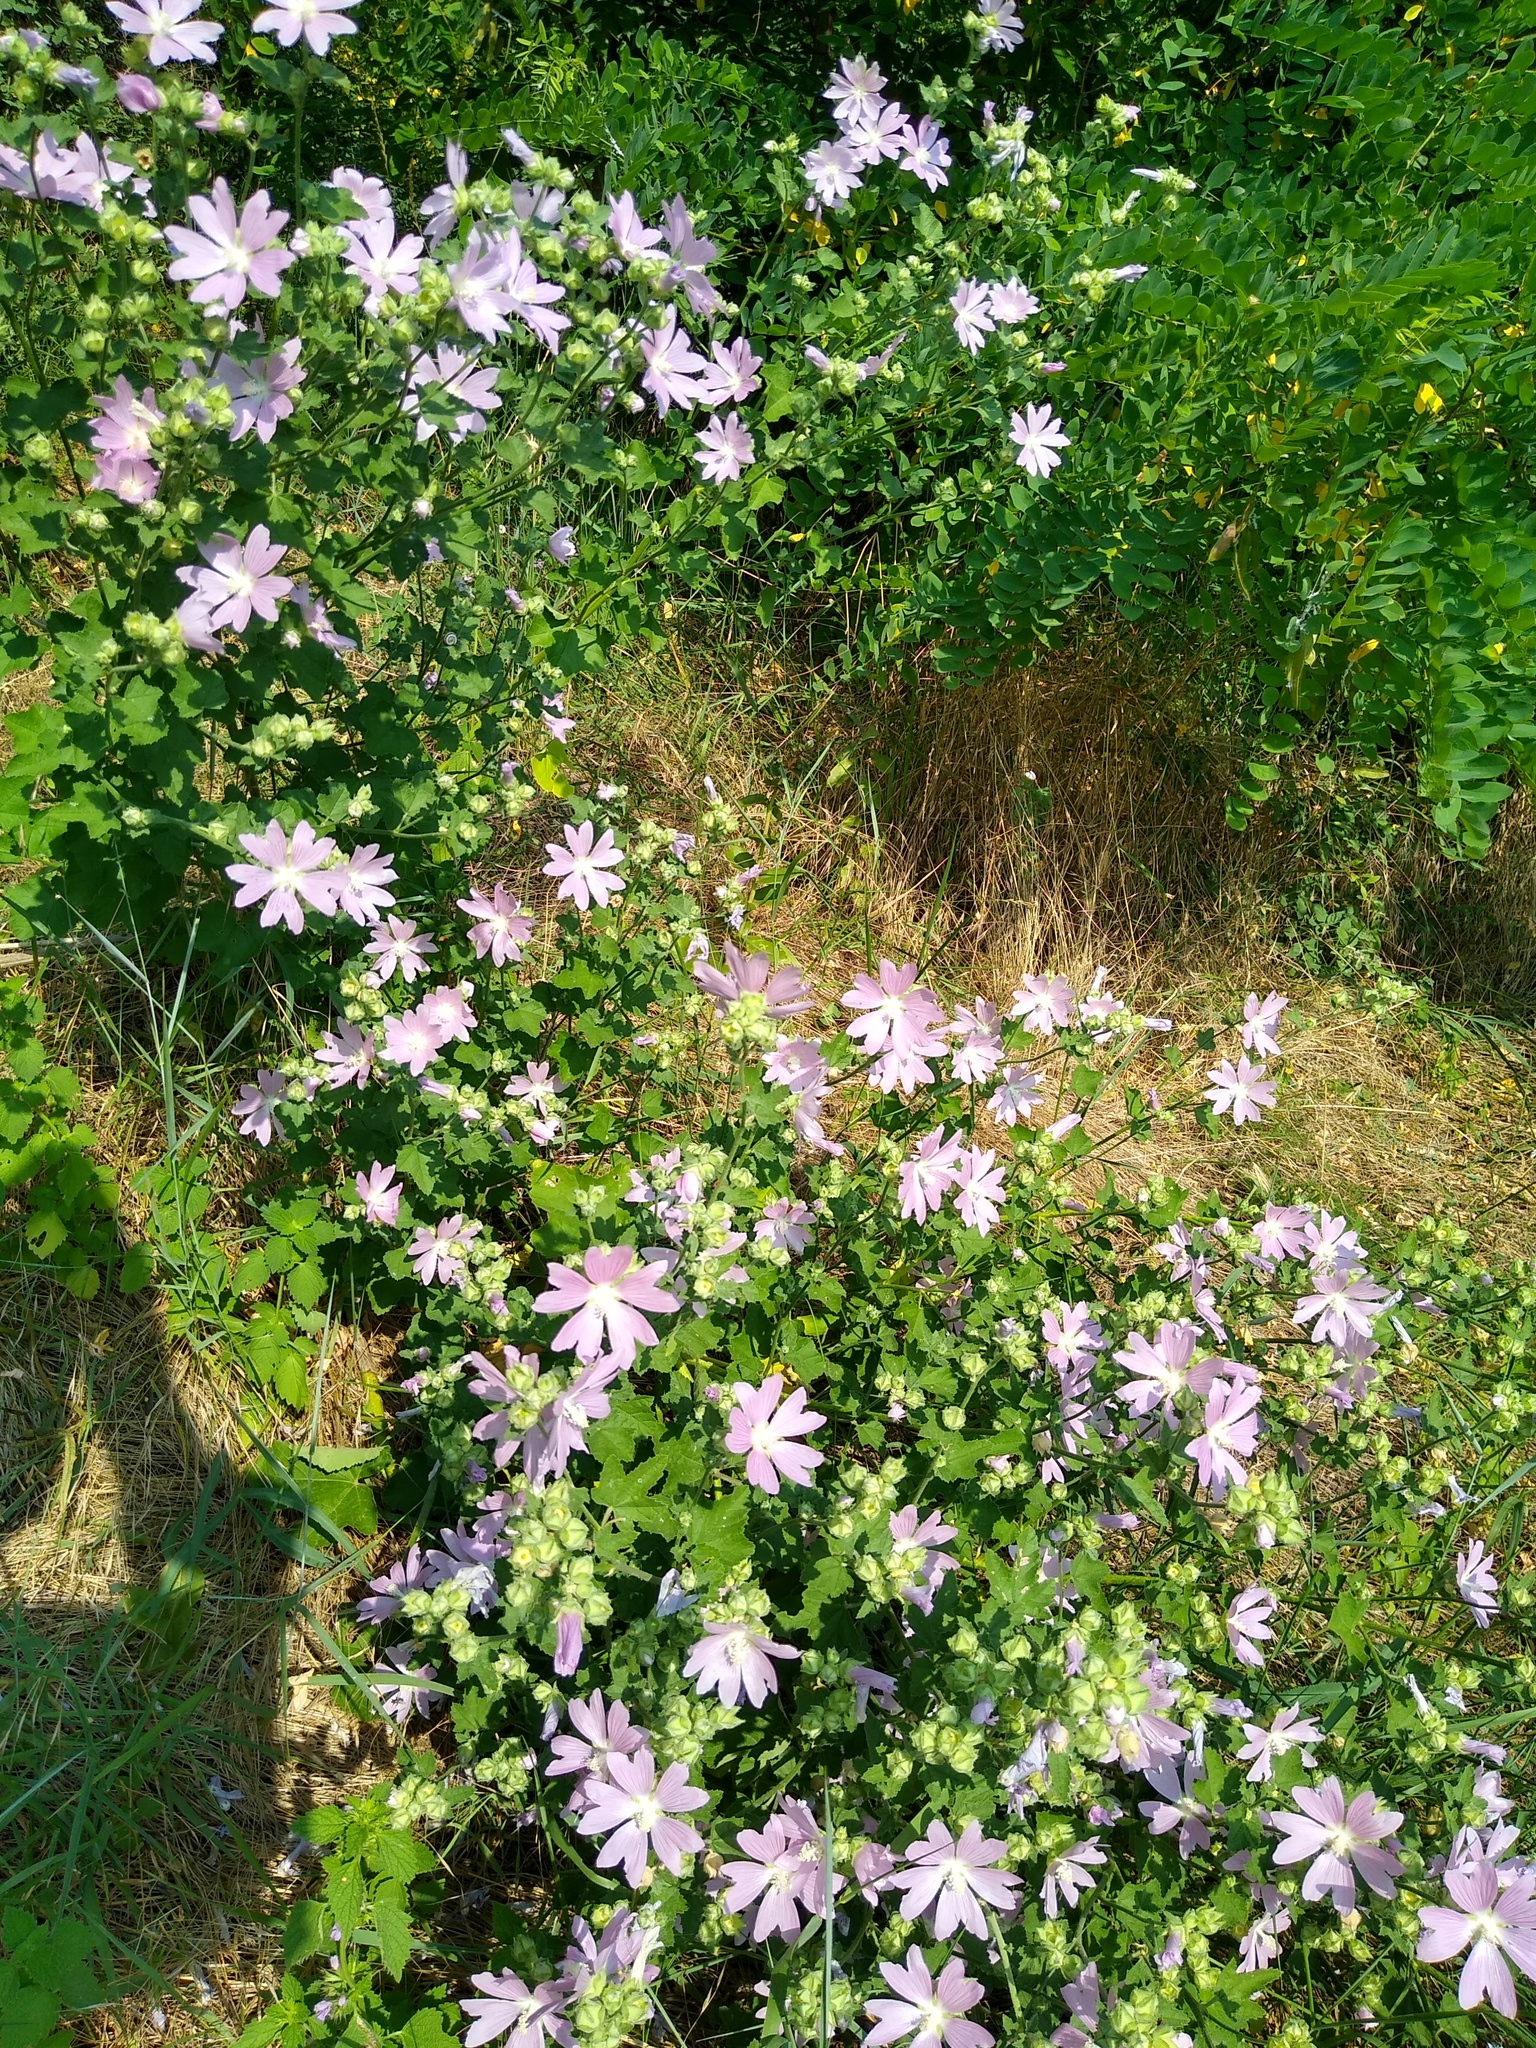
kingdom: Plantae
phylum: Tracheophyta
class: Magnoliopsida
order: Malvales
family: Malvaceae
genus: Malva
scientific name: Malva thuringiaca
